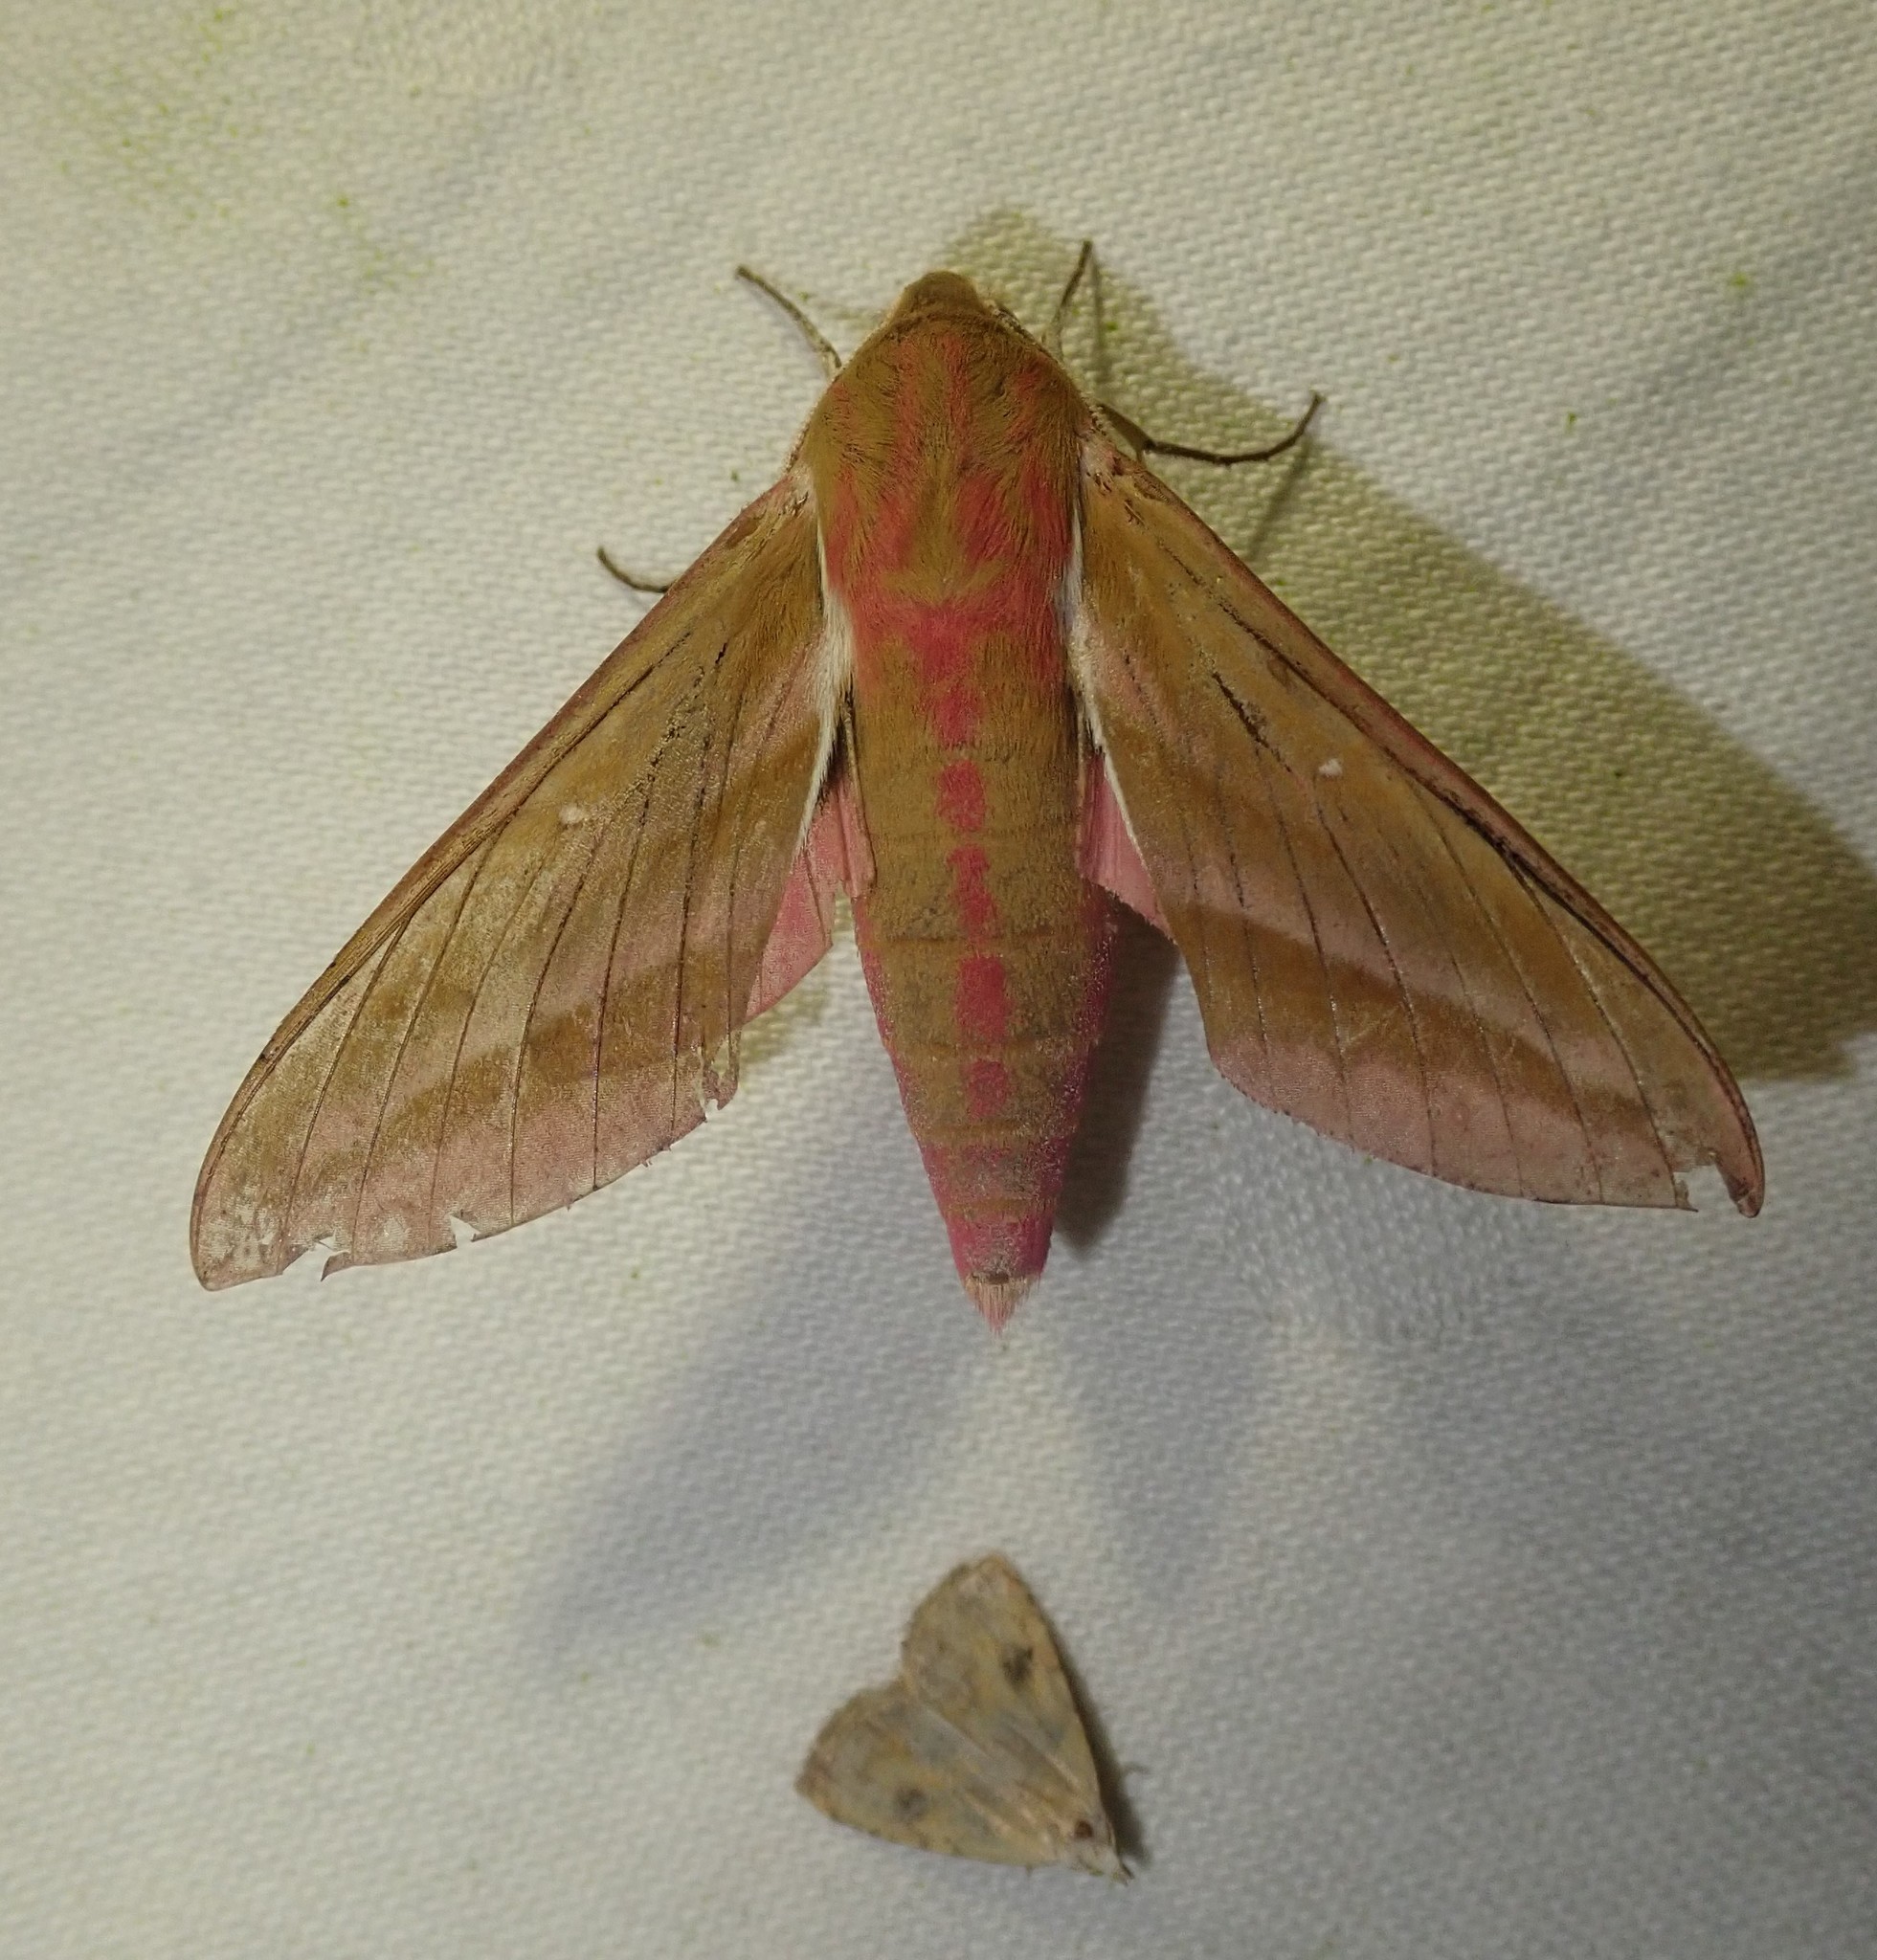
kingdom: Animalia
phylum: Arthropoda
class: Insecta
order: Lepidoptera
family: Sphingidae
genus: Deilephila
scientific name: Deilephila elpenor
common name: Elephant hawk-moth
